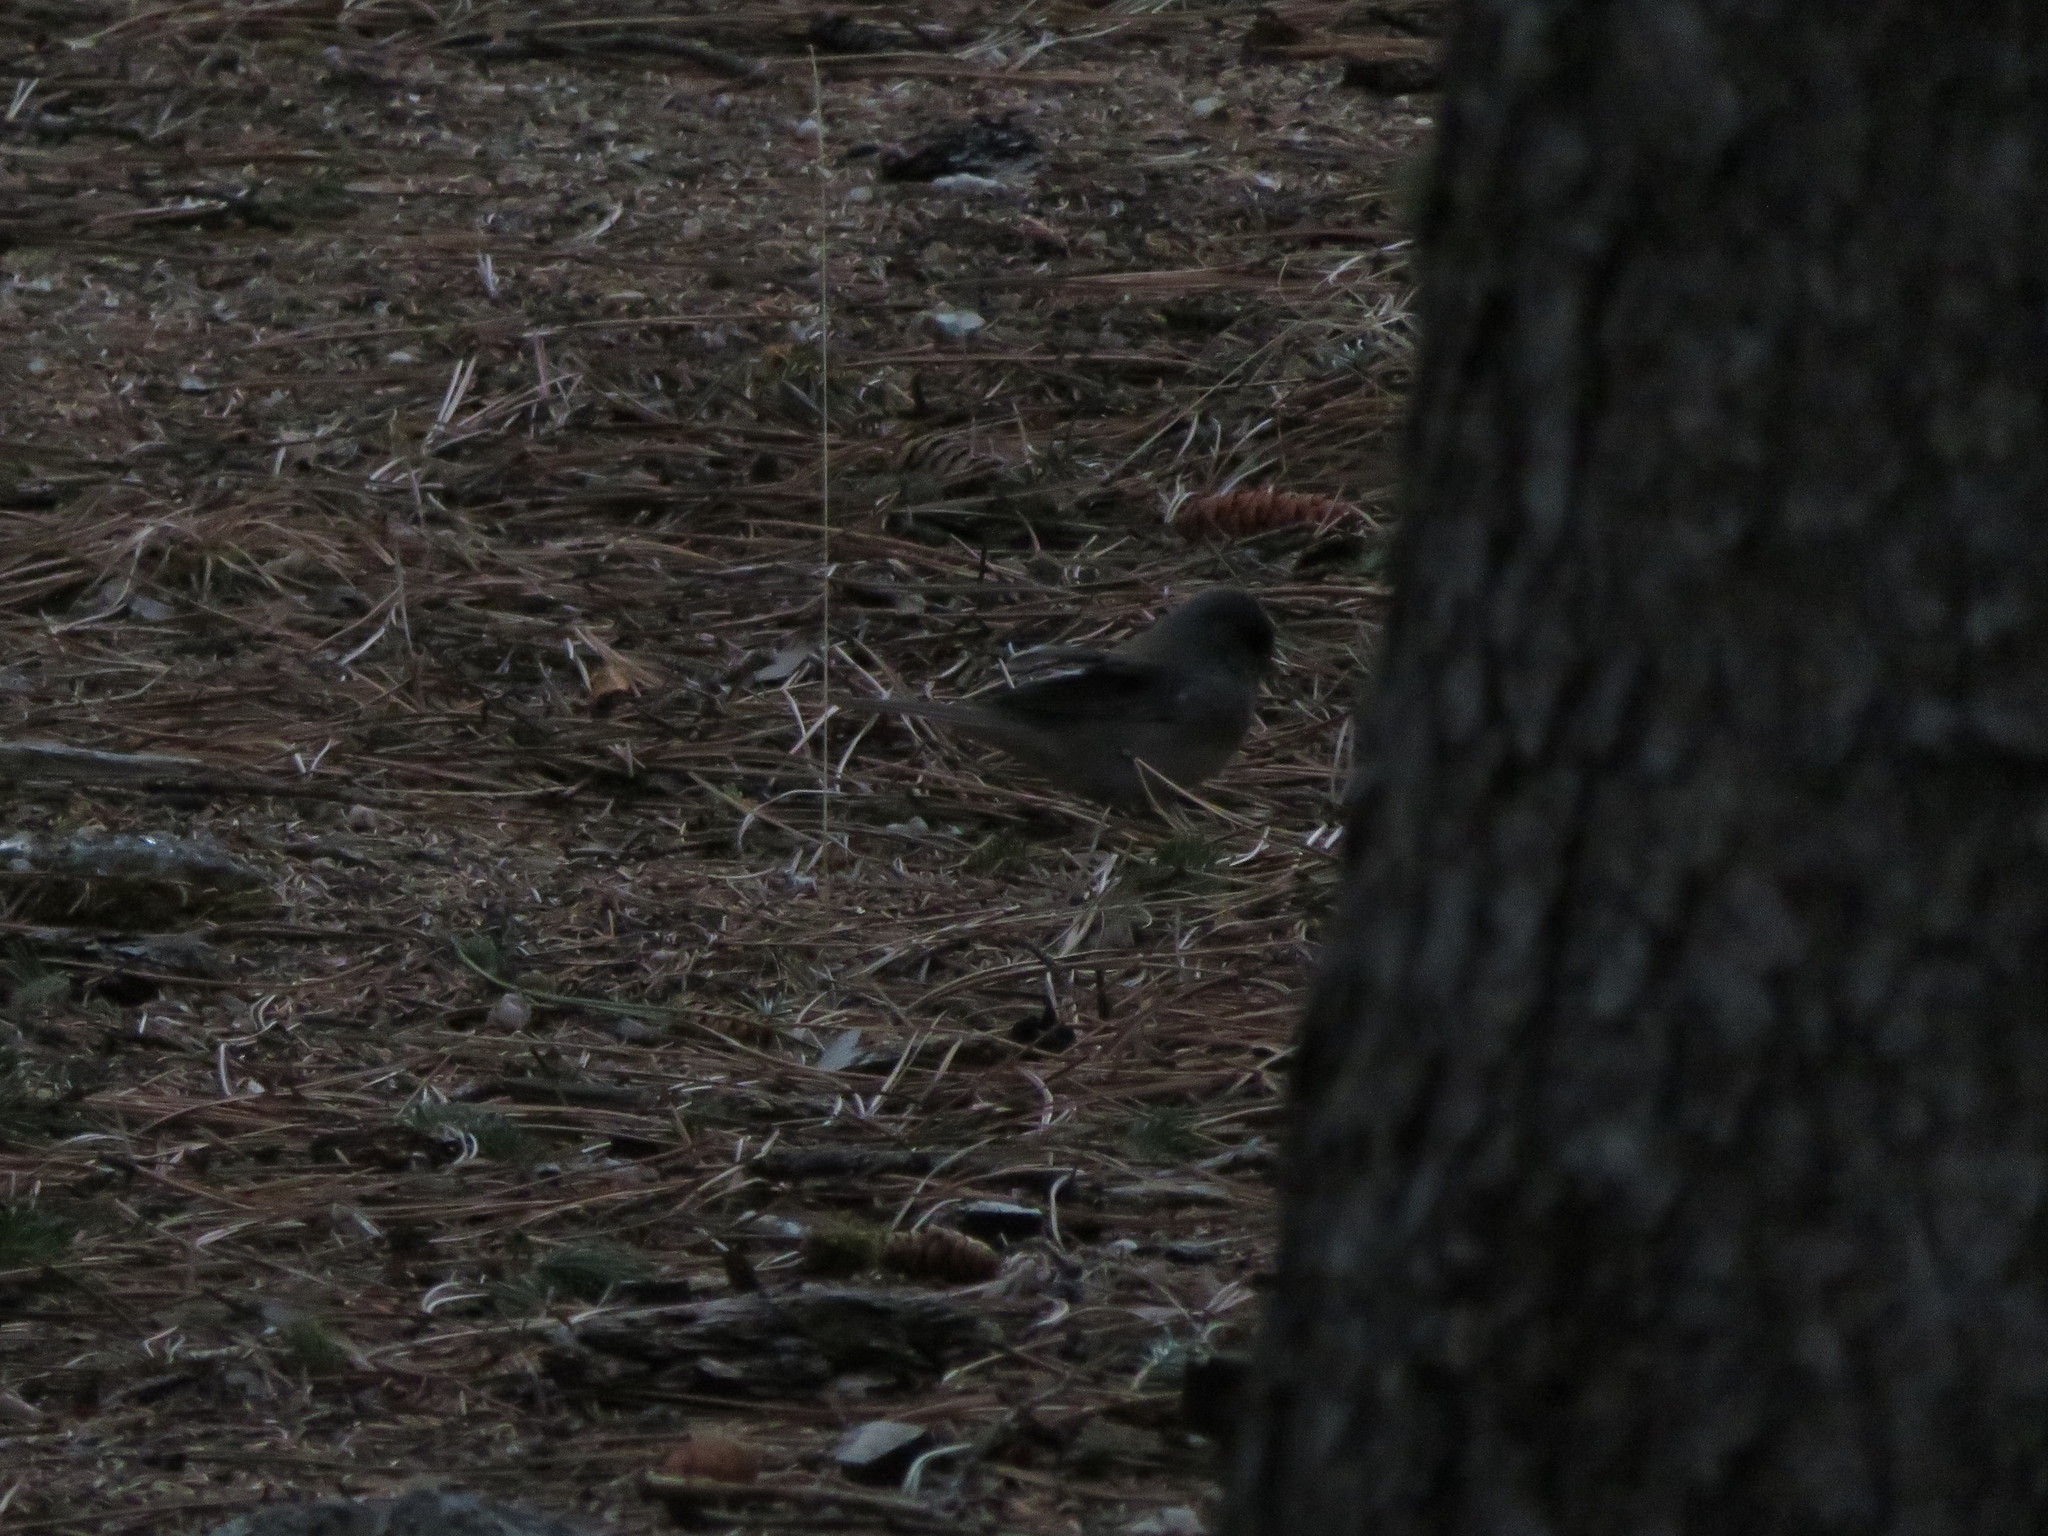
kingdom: Animalia
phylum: Chordata
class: Aves
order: Passeriformes
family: Passerellidae
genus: Junco
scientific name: Junco hyemalis
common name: Dark-eyed junco
